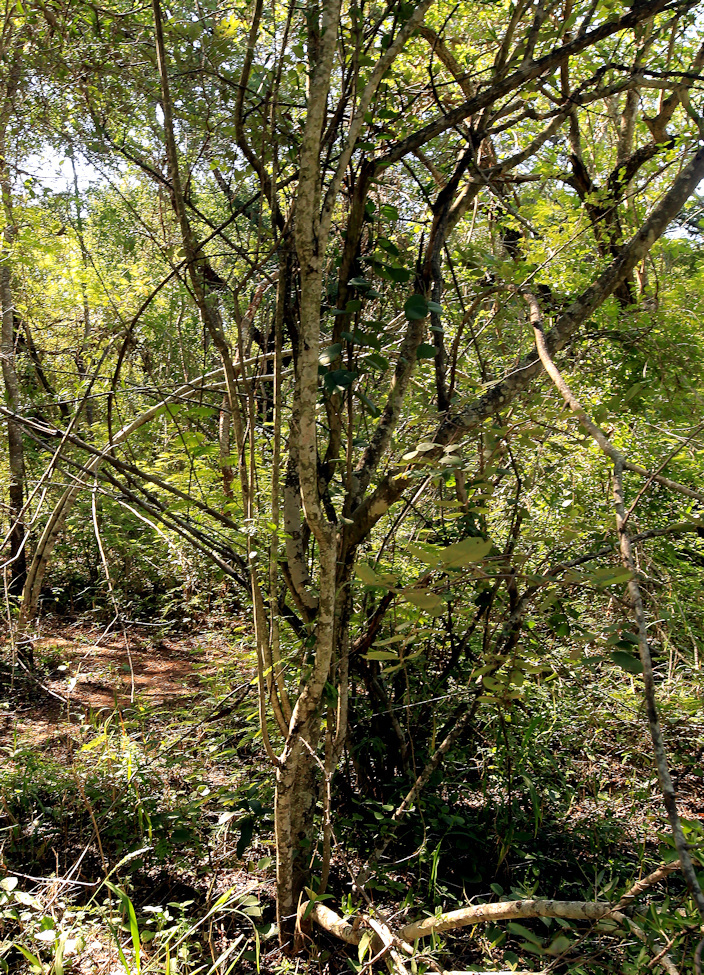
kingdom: Plantae
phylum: Tracheophyta
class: Magnoliopsida
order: Celastrales
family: Celastraceae
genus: Elaeodendron
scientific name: Elaeodendron transvaalense
